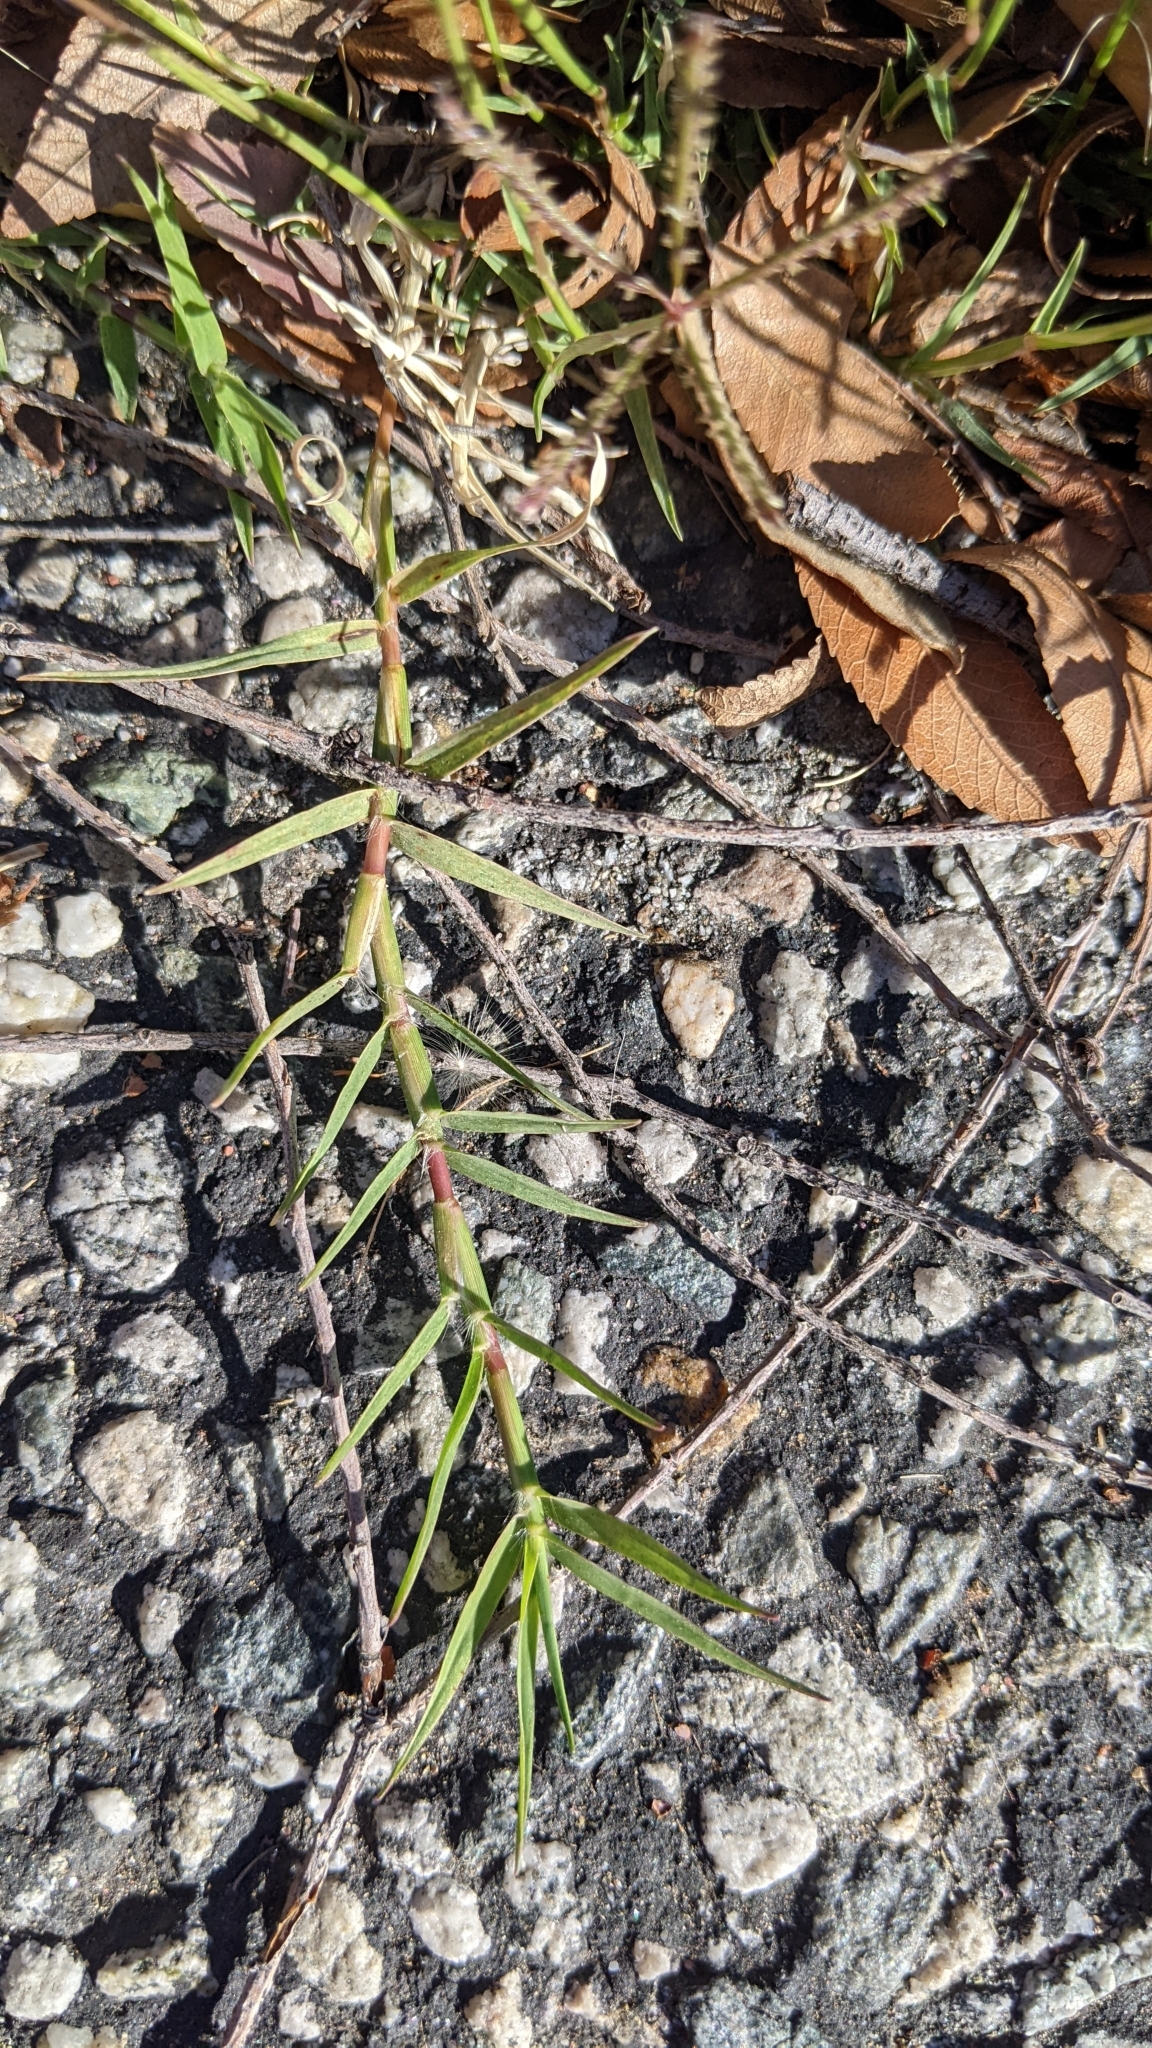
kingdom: Plantae
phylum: Tracheophyta
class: Liliopsida
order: Poales
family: Poaceae
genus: Cynodon
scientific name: Cynodon dactylon
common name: Bermuda grass
